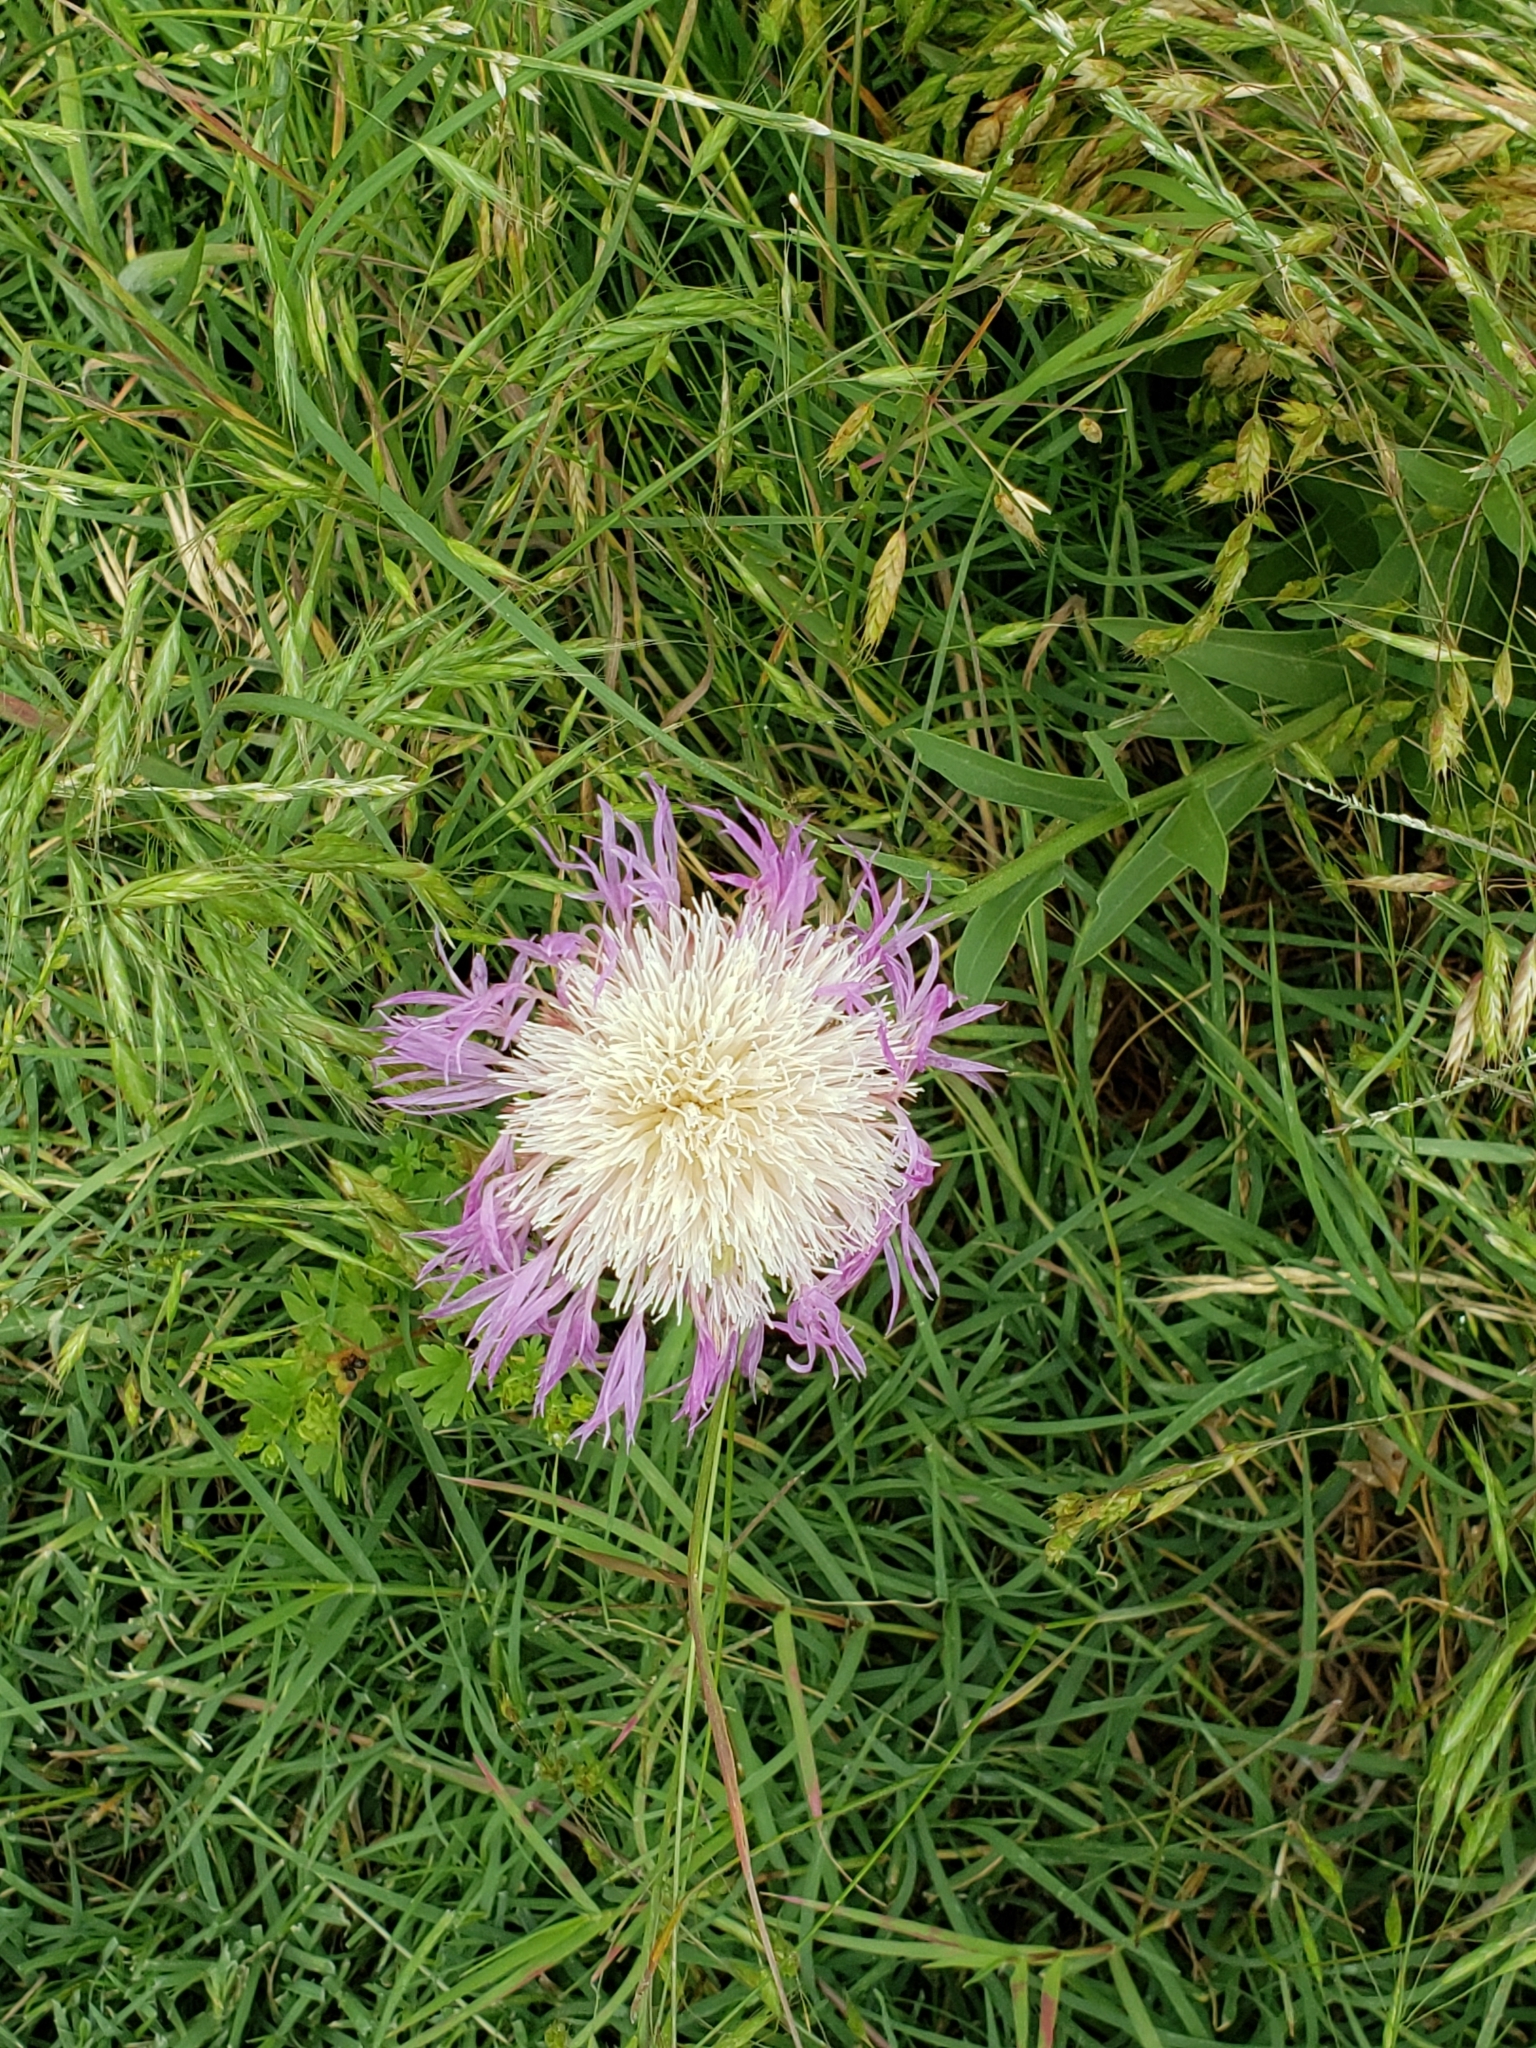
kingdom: Plantae
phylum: Tracheophyta
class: Magnoliopsida
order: Asterales
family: Asteraceae
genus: Plectocephalus
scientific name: Plectocephalus americanus
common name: American basket-flower
